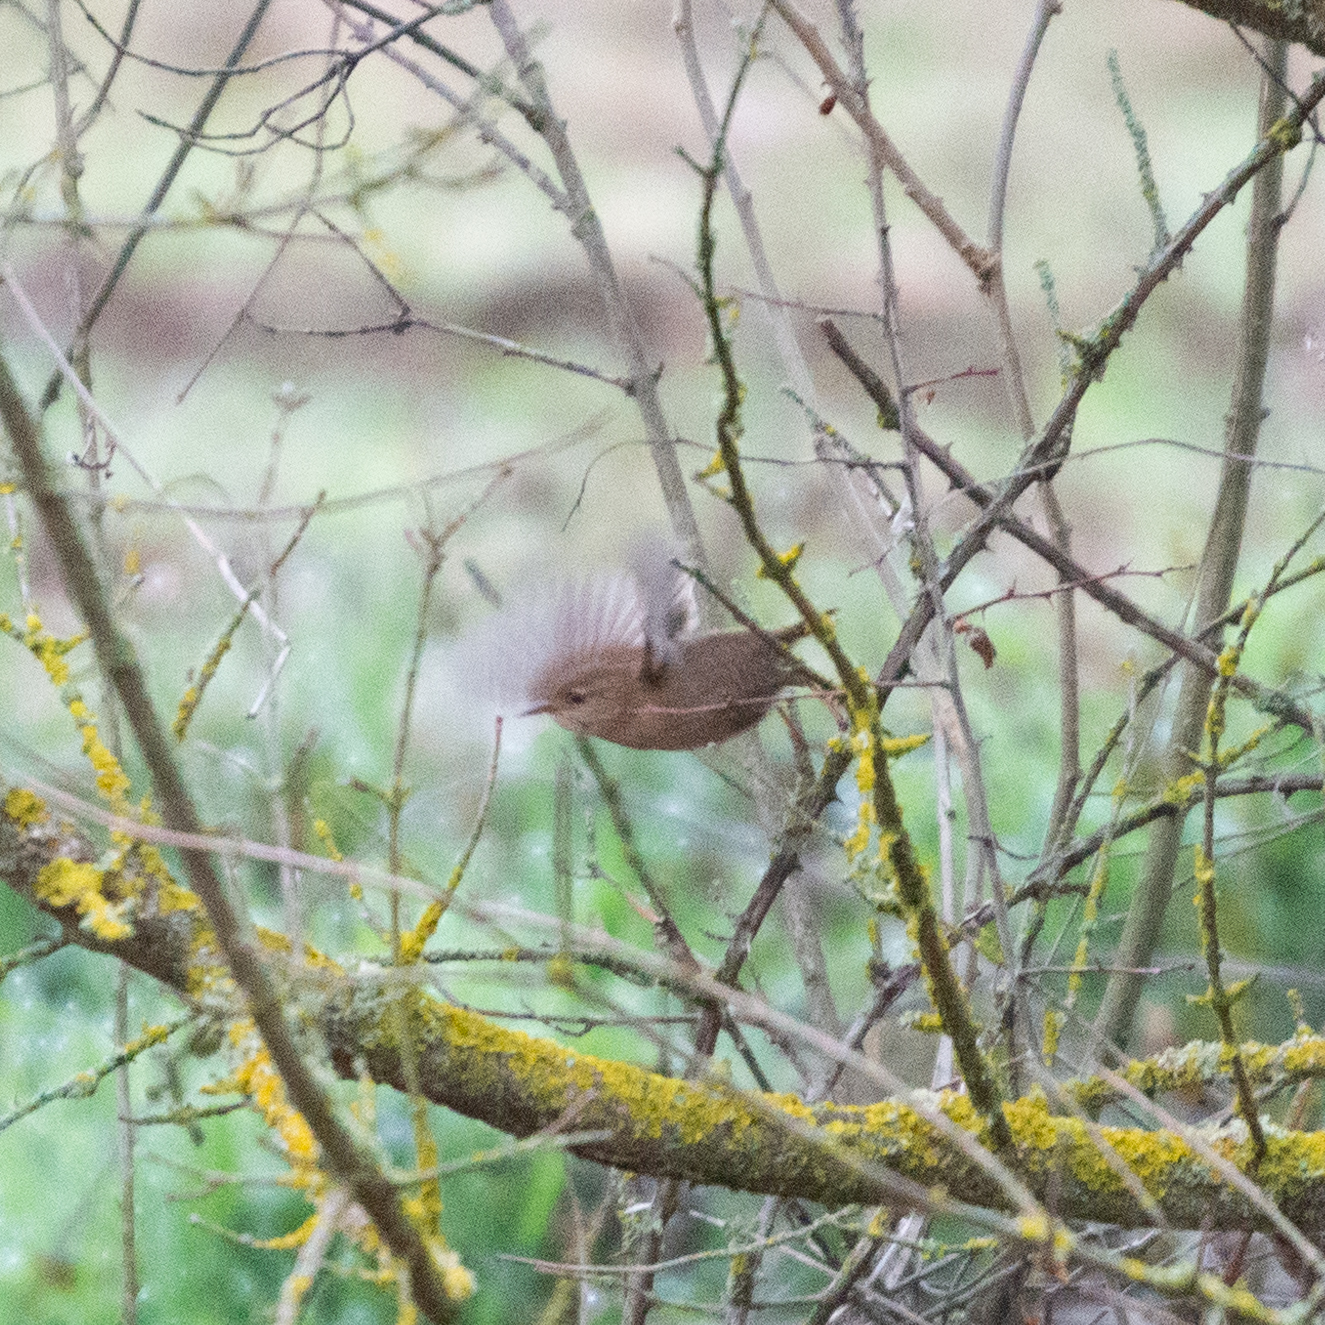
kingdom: Animalia
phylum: Chordata
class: Aves
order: Passeriformes
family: Troglodytidae
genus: Troglodytes
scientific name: Troglodytes troglodytes
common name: Eurasian wren
